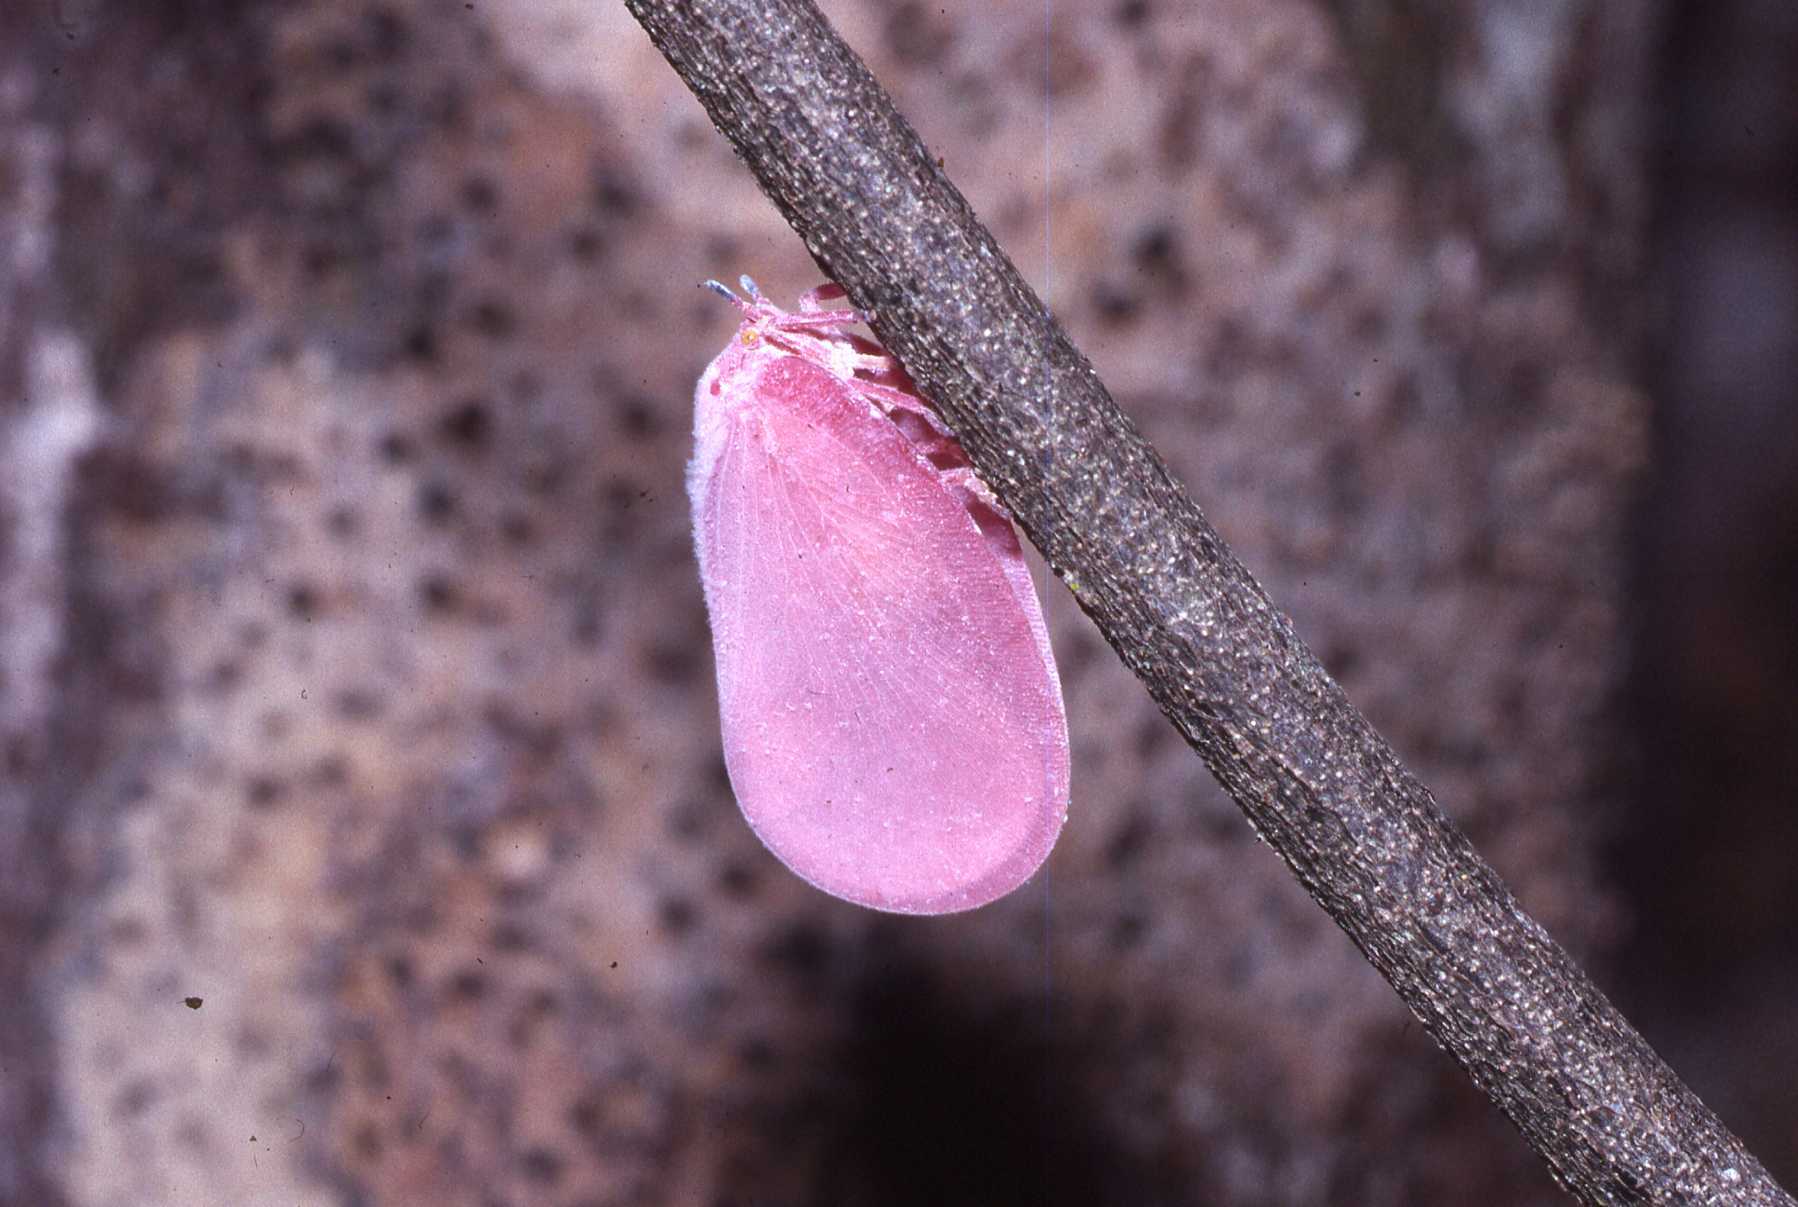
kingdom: Animalia
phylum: Arthropoda
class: Insecta
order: Hemiptera
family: Flatidae
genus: Flatida
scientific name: Flatida rosea
